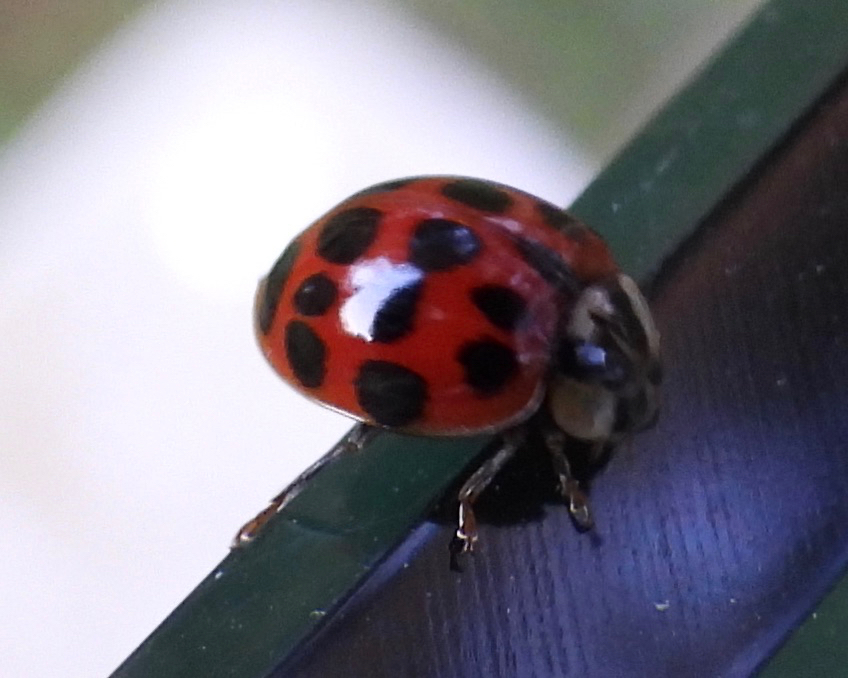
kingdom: Animalia
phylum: Arthropoda
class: Insecta
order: Coleoptera
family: Coccinellidae
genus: Harmonia
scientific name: Harmonia axyridis
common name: Harlequin ladybird
